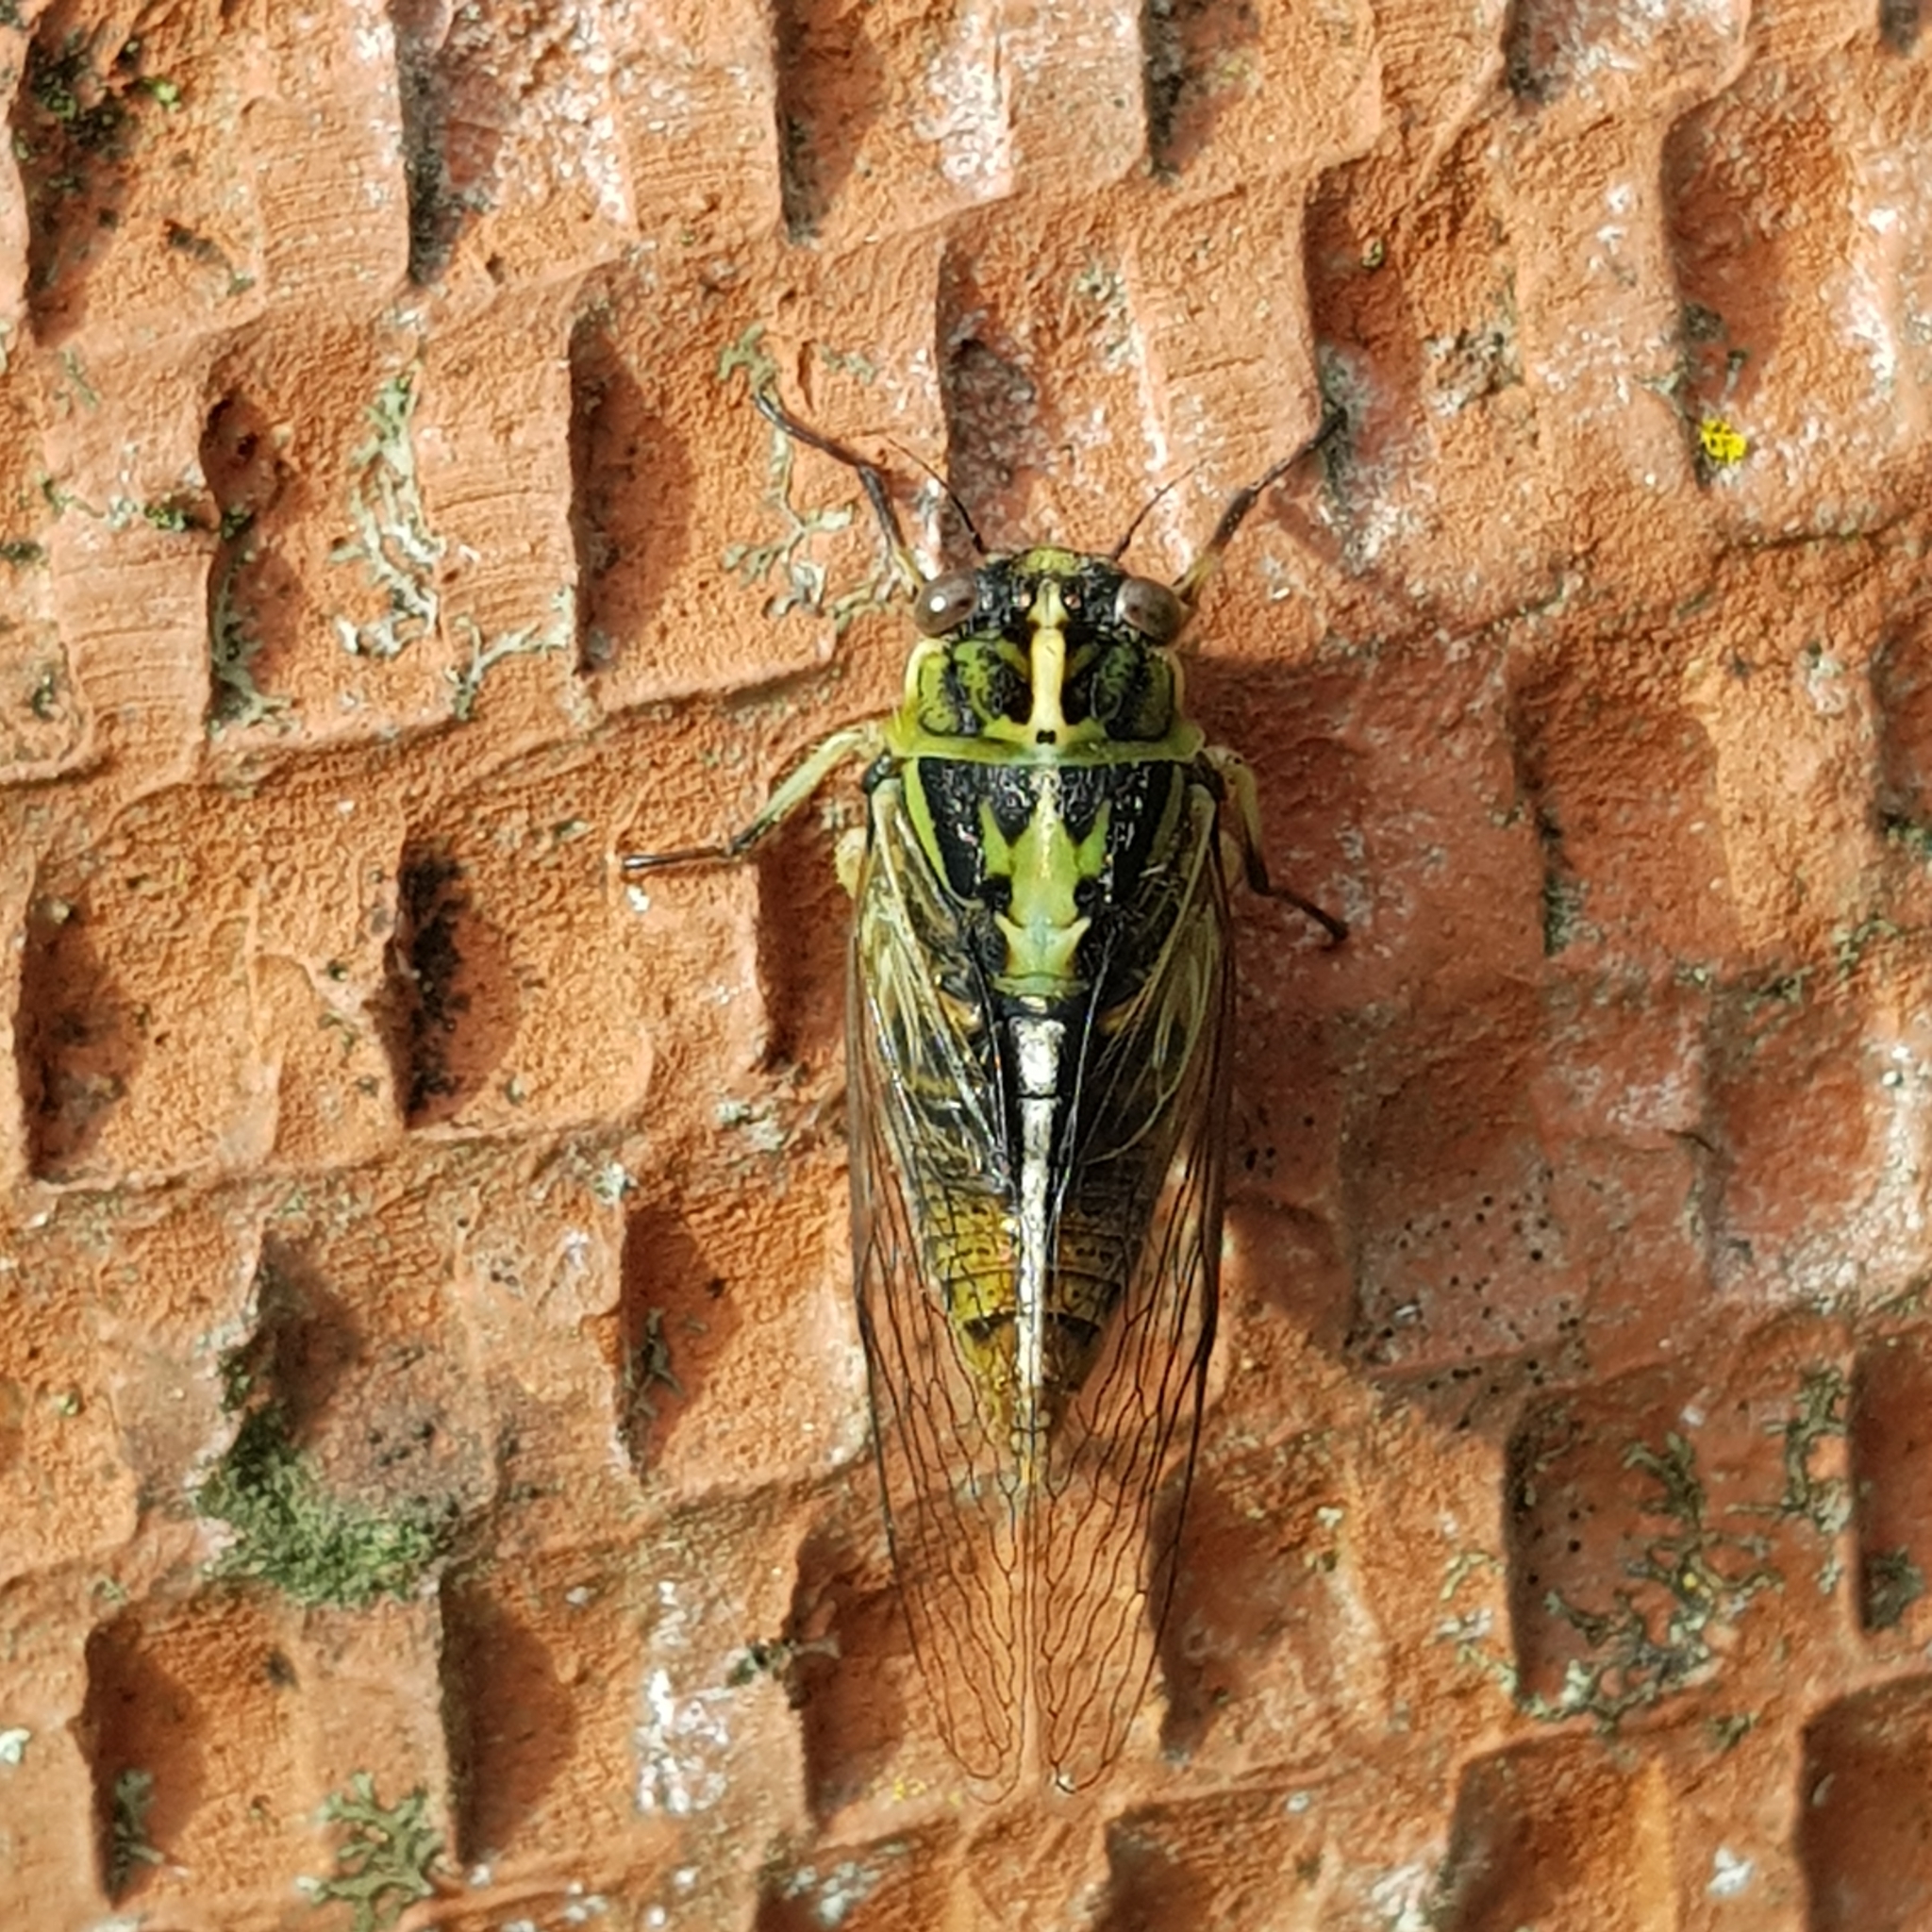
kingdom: Animalia
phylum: Arthropoda
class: Insecta
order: Hemiptera
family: Cicadidae
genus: Kikihia
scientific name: Kikihia muta
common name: Variable cicada
